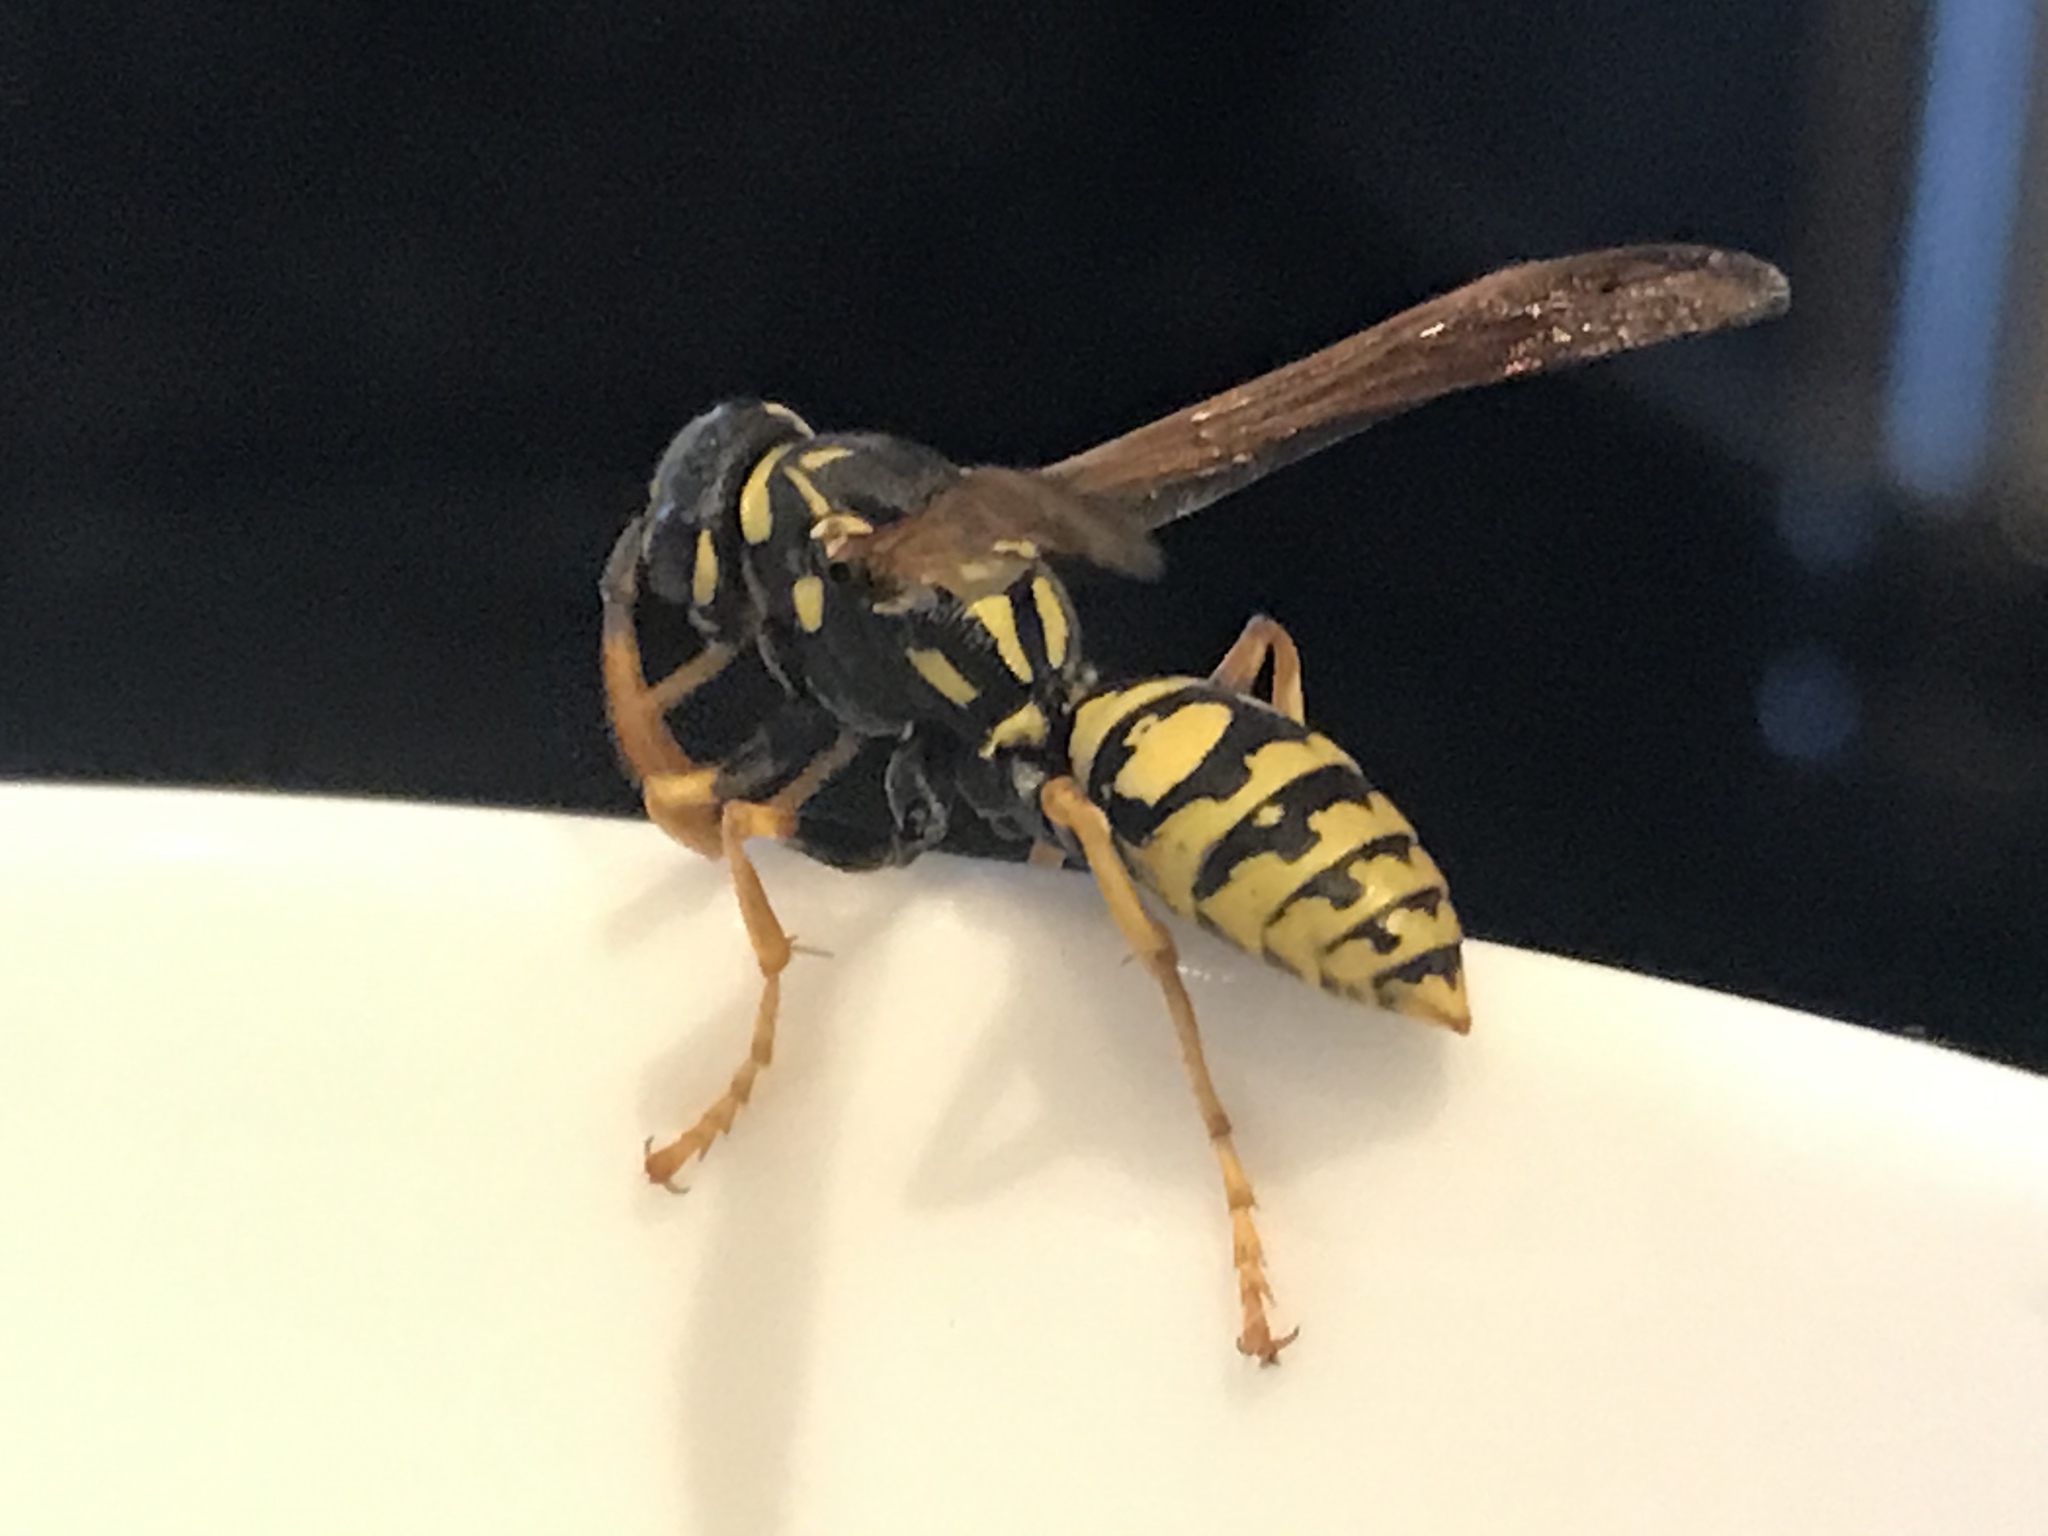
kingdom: Animalia
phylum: Arthropoda
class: Insecta
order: Hymenoptera
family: Eumenidae
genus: Polistes
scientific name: Polistes dominula
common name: Paper wasp
